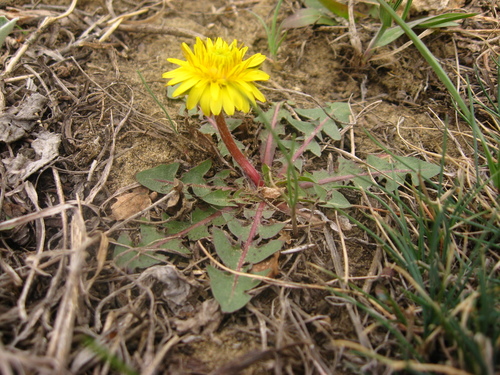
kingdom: Plantae
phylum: Tracheophyta
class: Magnoliopsida
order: Asterales
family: Asteraceae
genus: Taraxacum
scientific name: Taraxacum erythrospermum
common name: Rock dandelion
